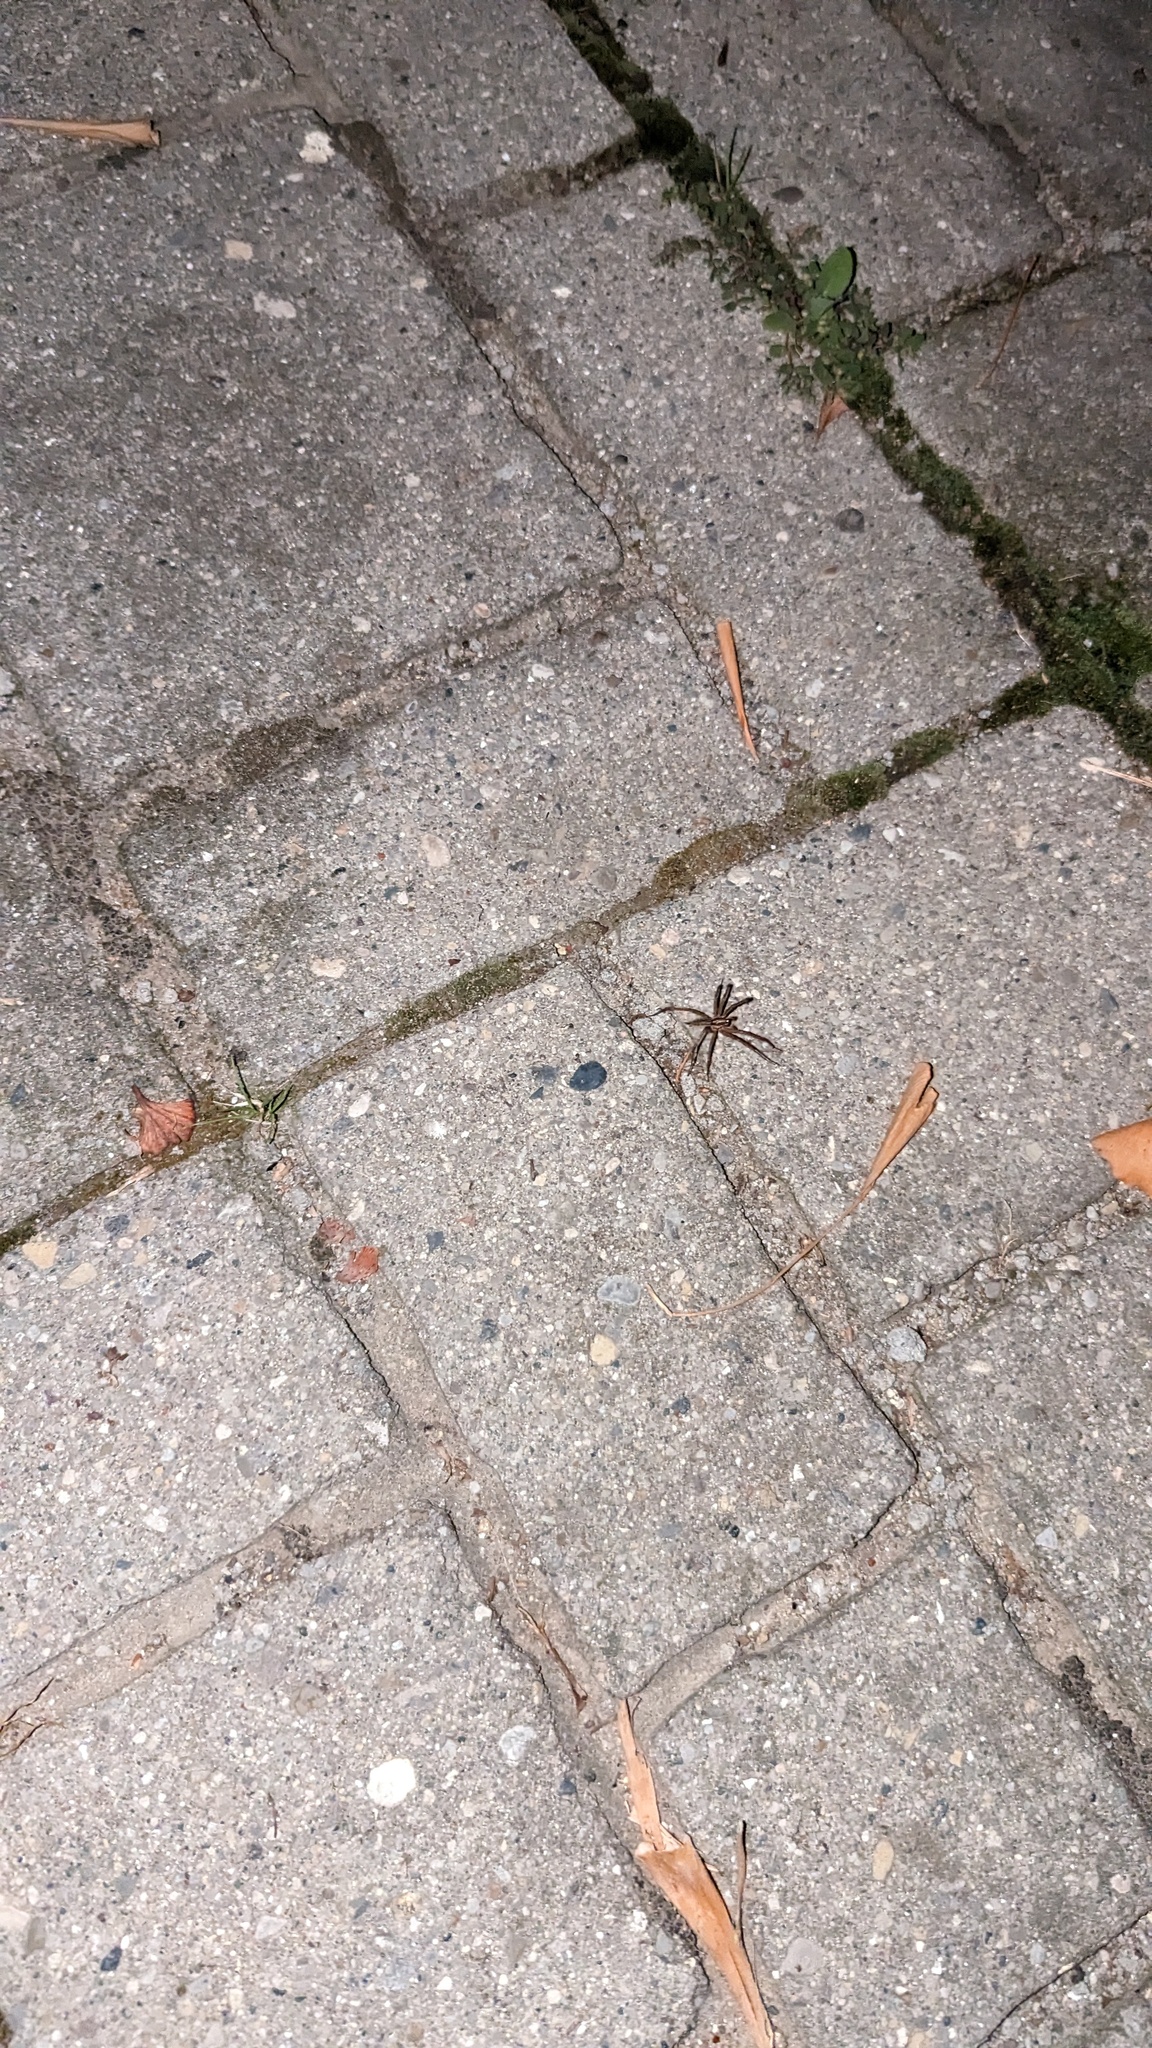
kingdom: Animalia
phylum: Arthropoda
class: Arachnida
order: Araneae
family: Agelenidae
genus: Agelenopsis
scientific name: Agelenopsis
